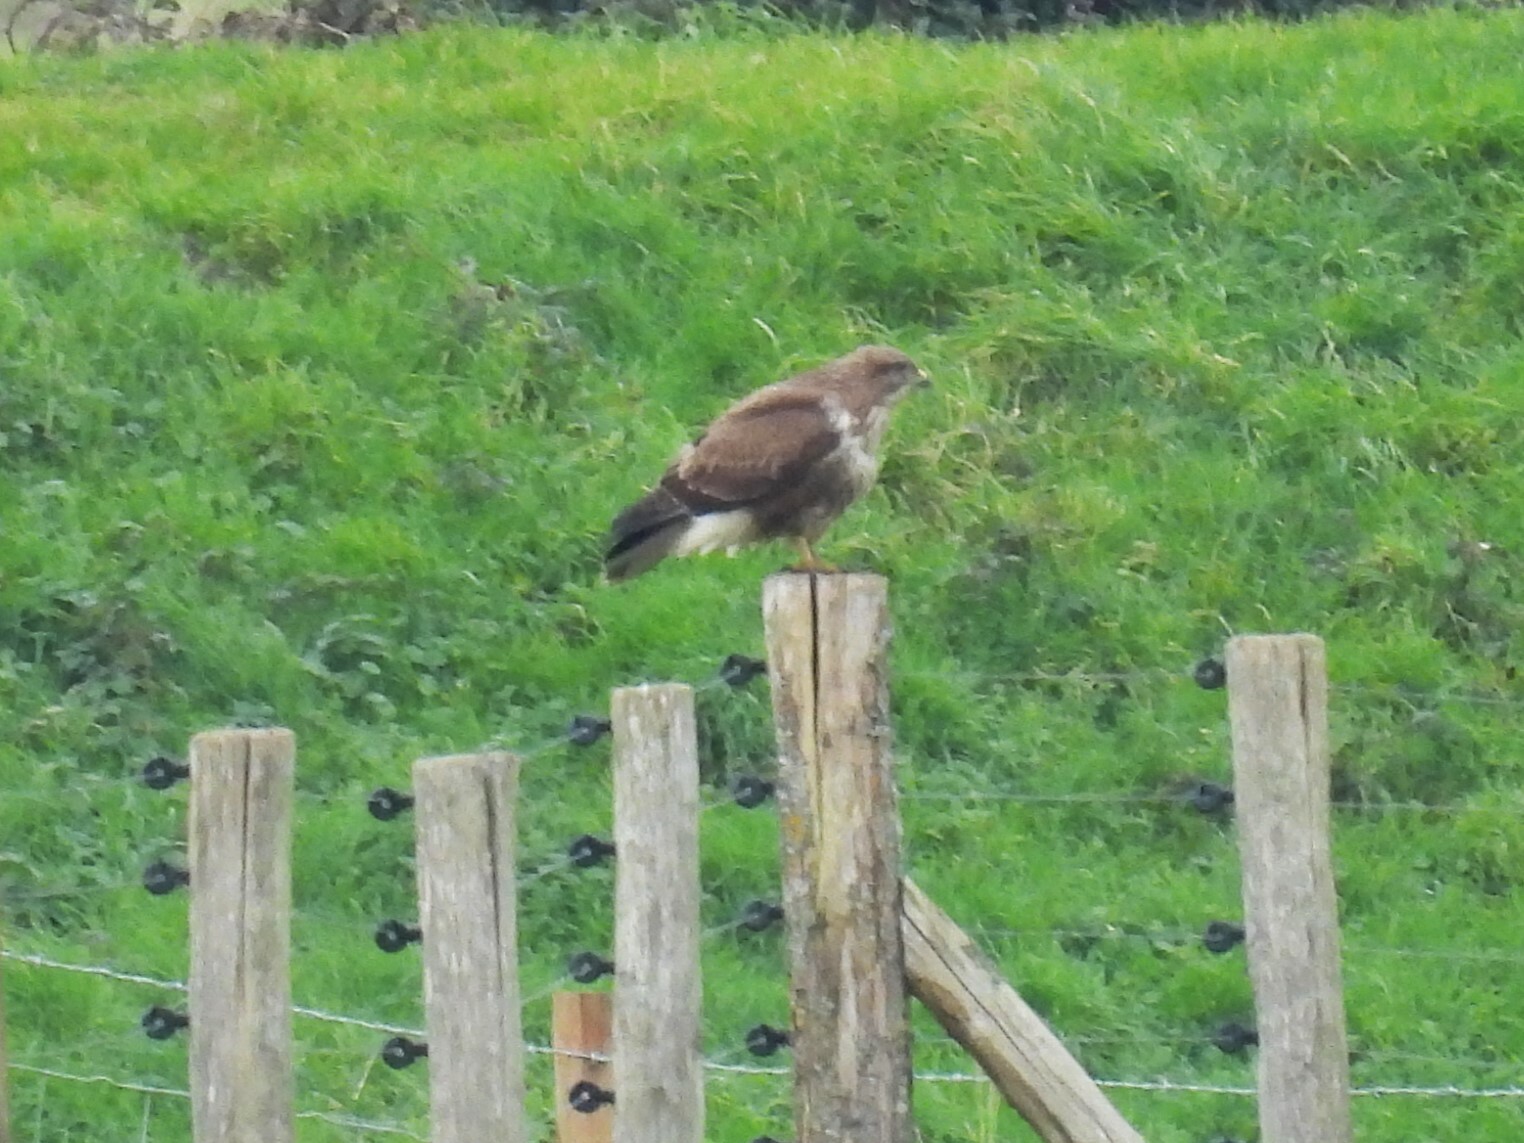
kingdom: Animalia
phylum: Chordata
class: Aves
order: Accipitriformes
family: Accipitridae
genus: Buteo
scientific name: Buteo buteo
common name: Common buzzard
